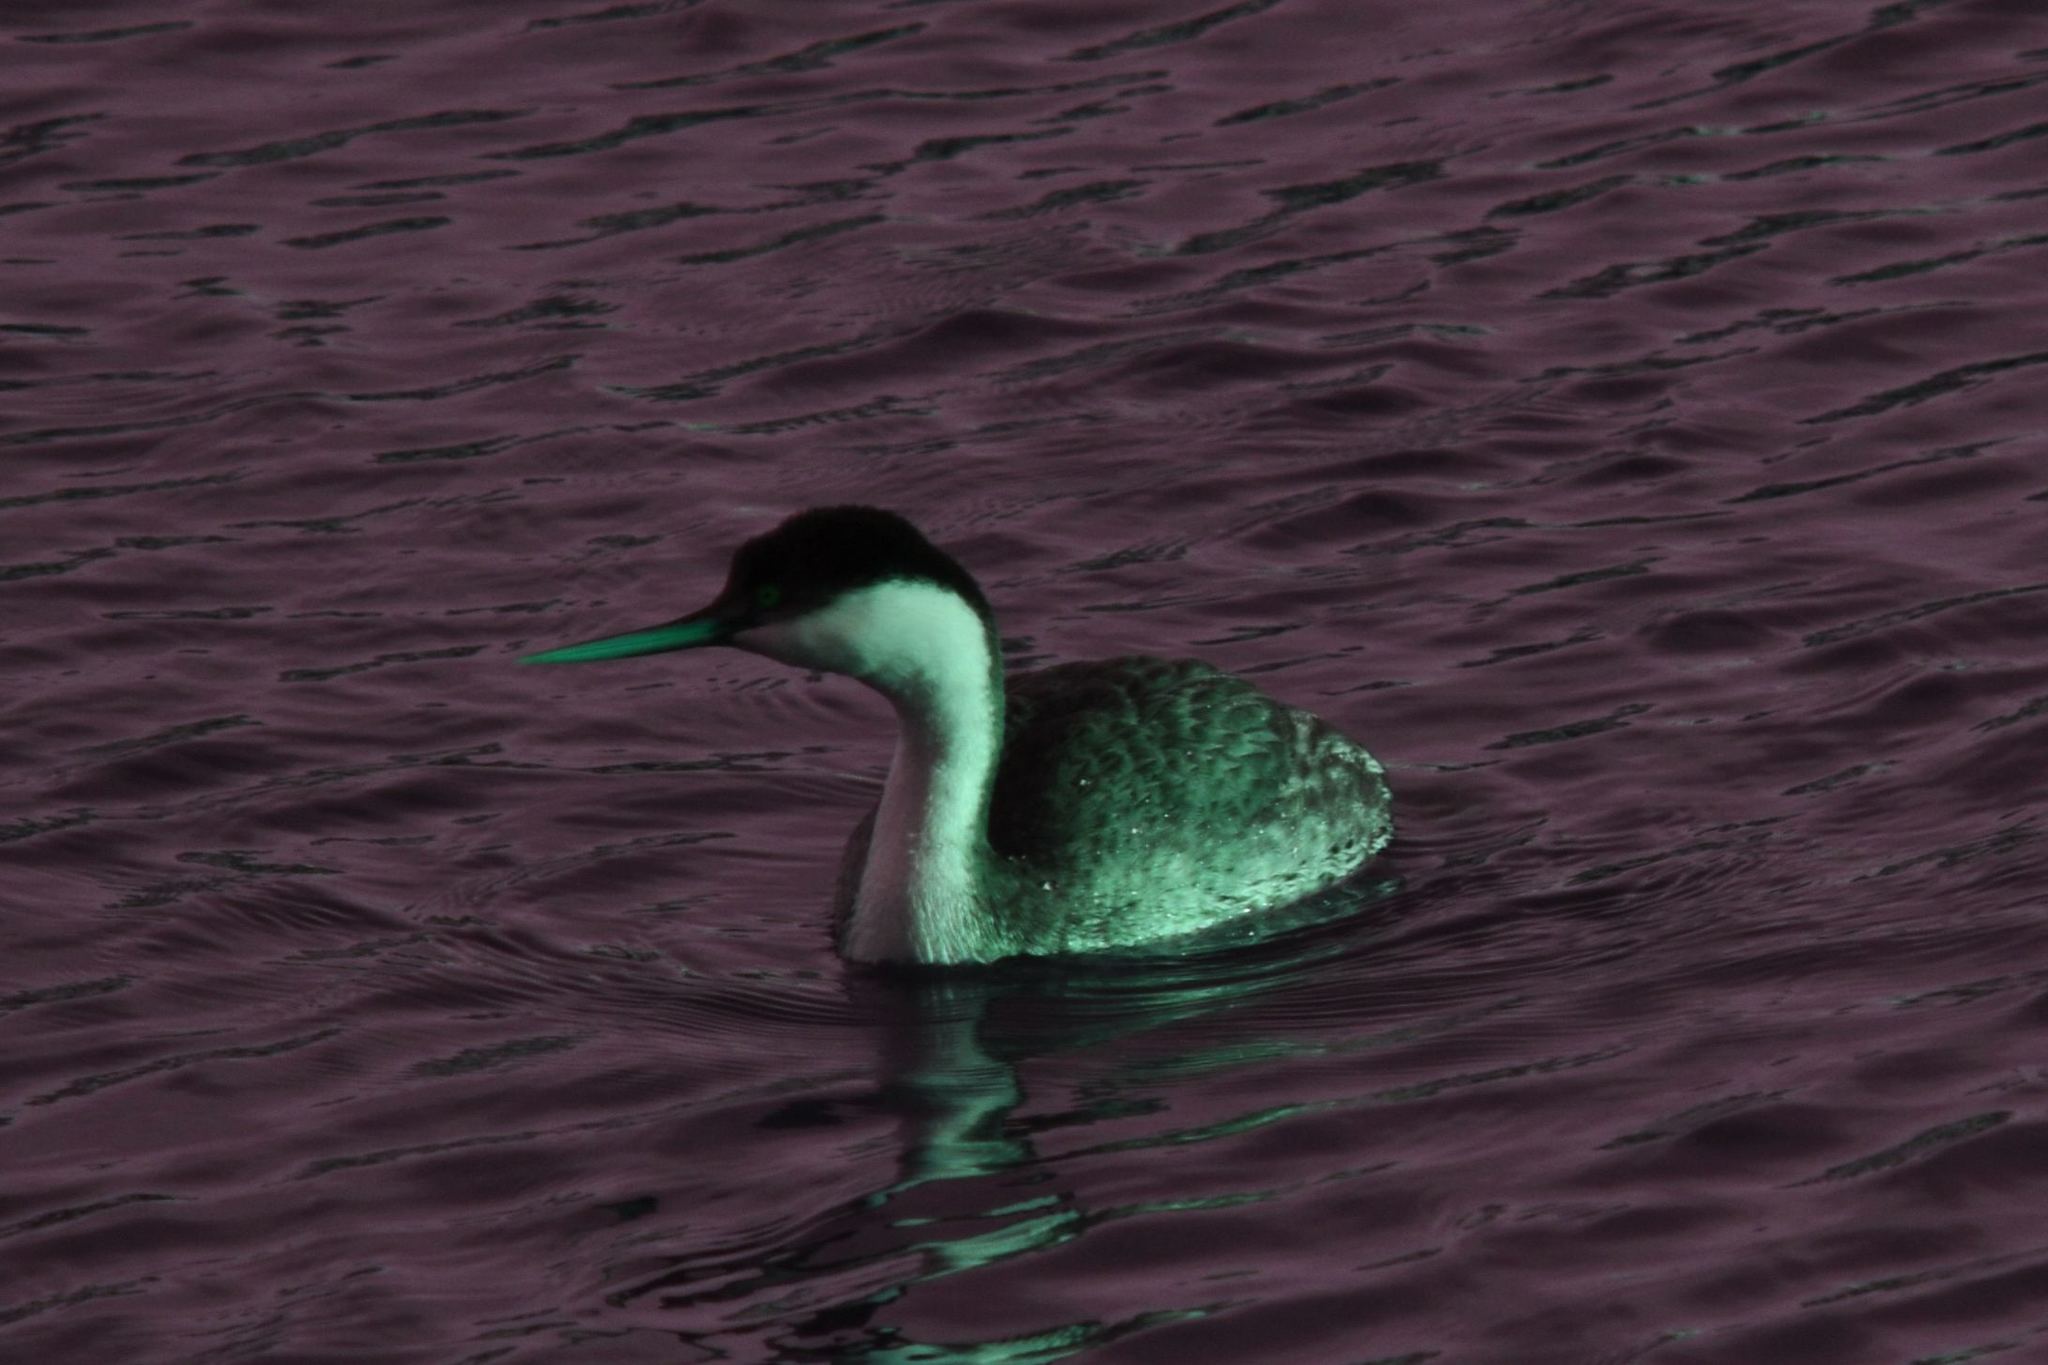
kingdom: Animalia
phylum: Chordata
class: Aves
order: Podicipediformes
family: Podicipedidae
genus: Aechmophorus
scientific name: Aechmophorus occidentalis
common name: Western grebe
